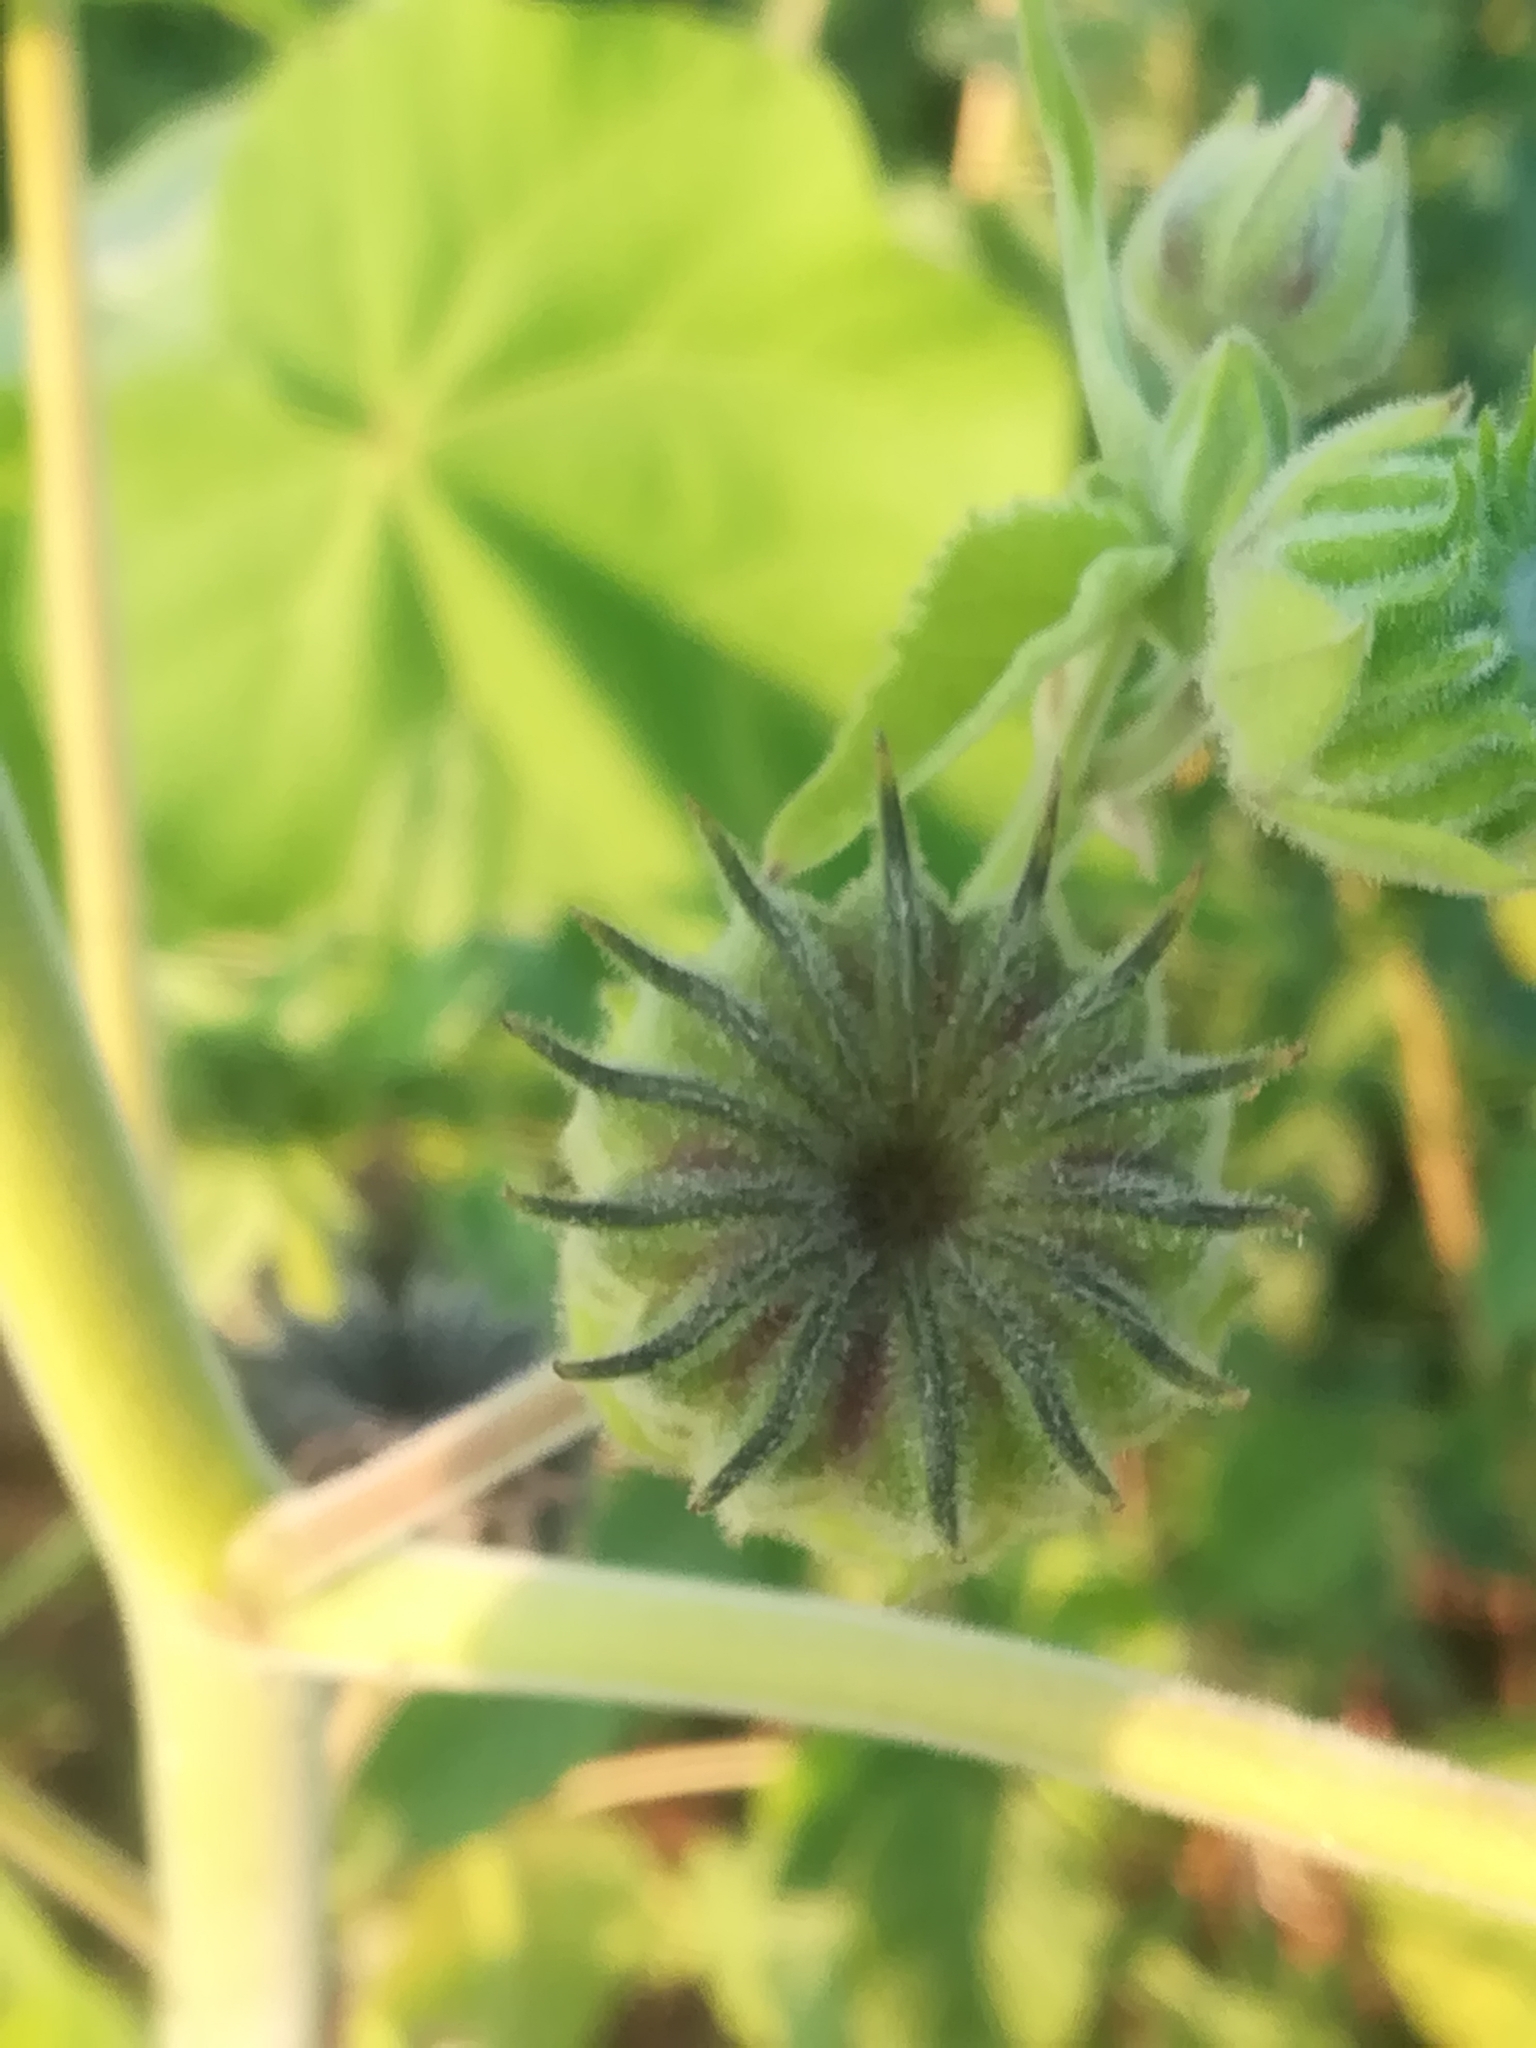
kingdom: Plantae
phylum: Tracheophyta
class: Magnoliopsida
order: Malvales
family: Malvaceae
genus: Abutilon
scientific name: Abutilon theophrasti
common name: Velvetleaf
